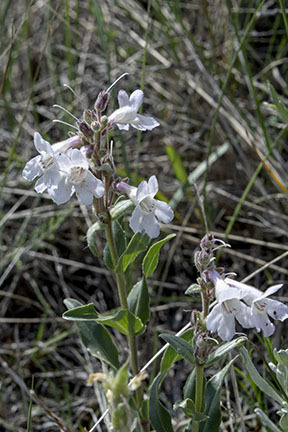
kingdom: Plantae
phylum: Tracheophyta
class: Magnoliopsida
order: Lamiales
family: Plantaginaceae
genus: Penstemon
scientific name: Penstemon albidus
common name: White beardtongue
